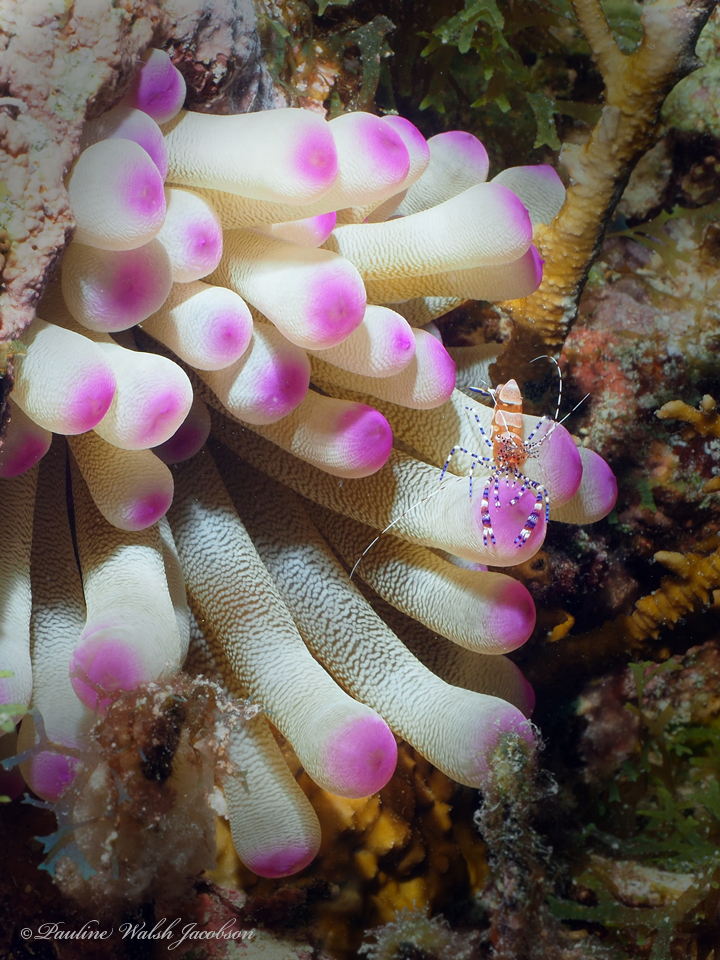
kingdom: Animalia
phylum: Cnidaria
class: Anthozoa
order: Actiniaria
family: Actiniidae
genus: Condylactis
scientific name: Condylactis gigantea
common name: Giant caribbean anemone
